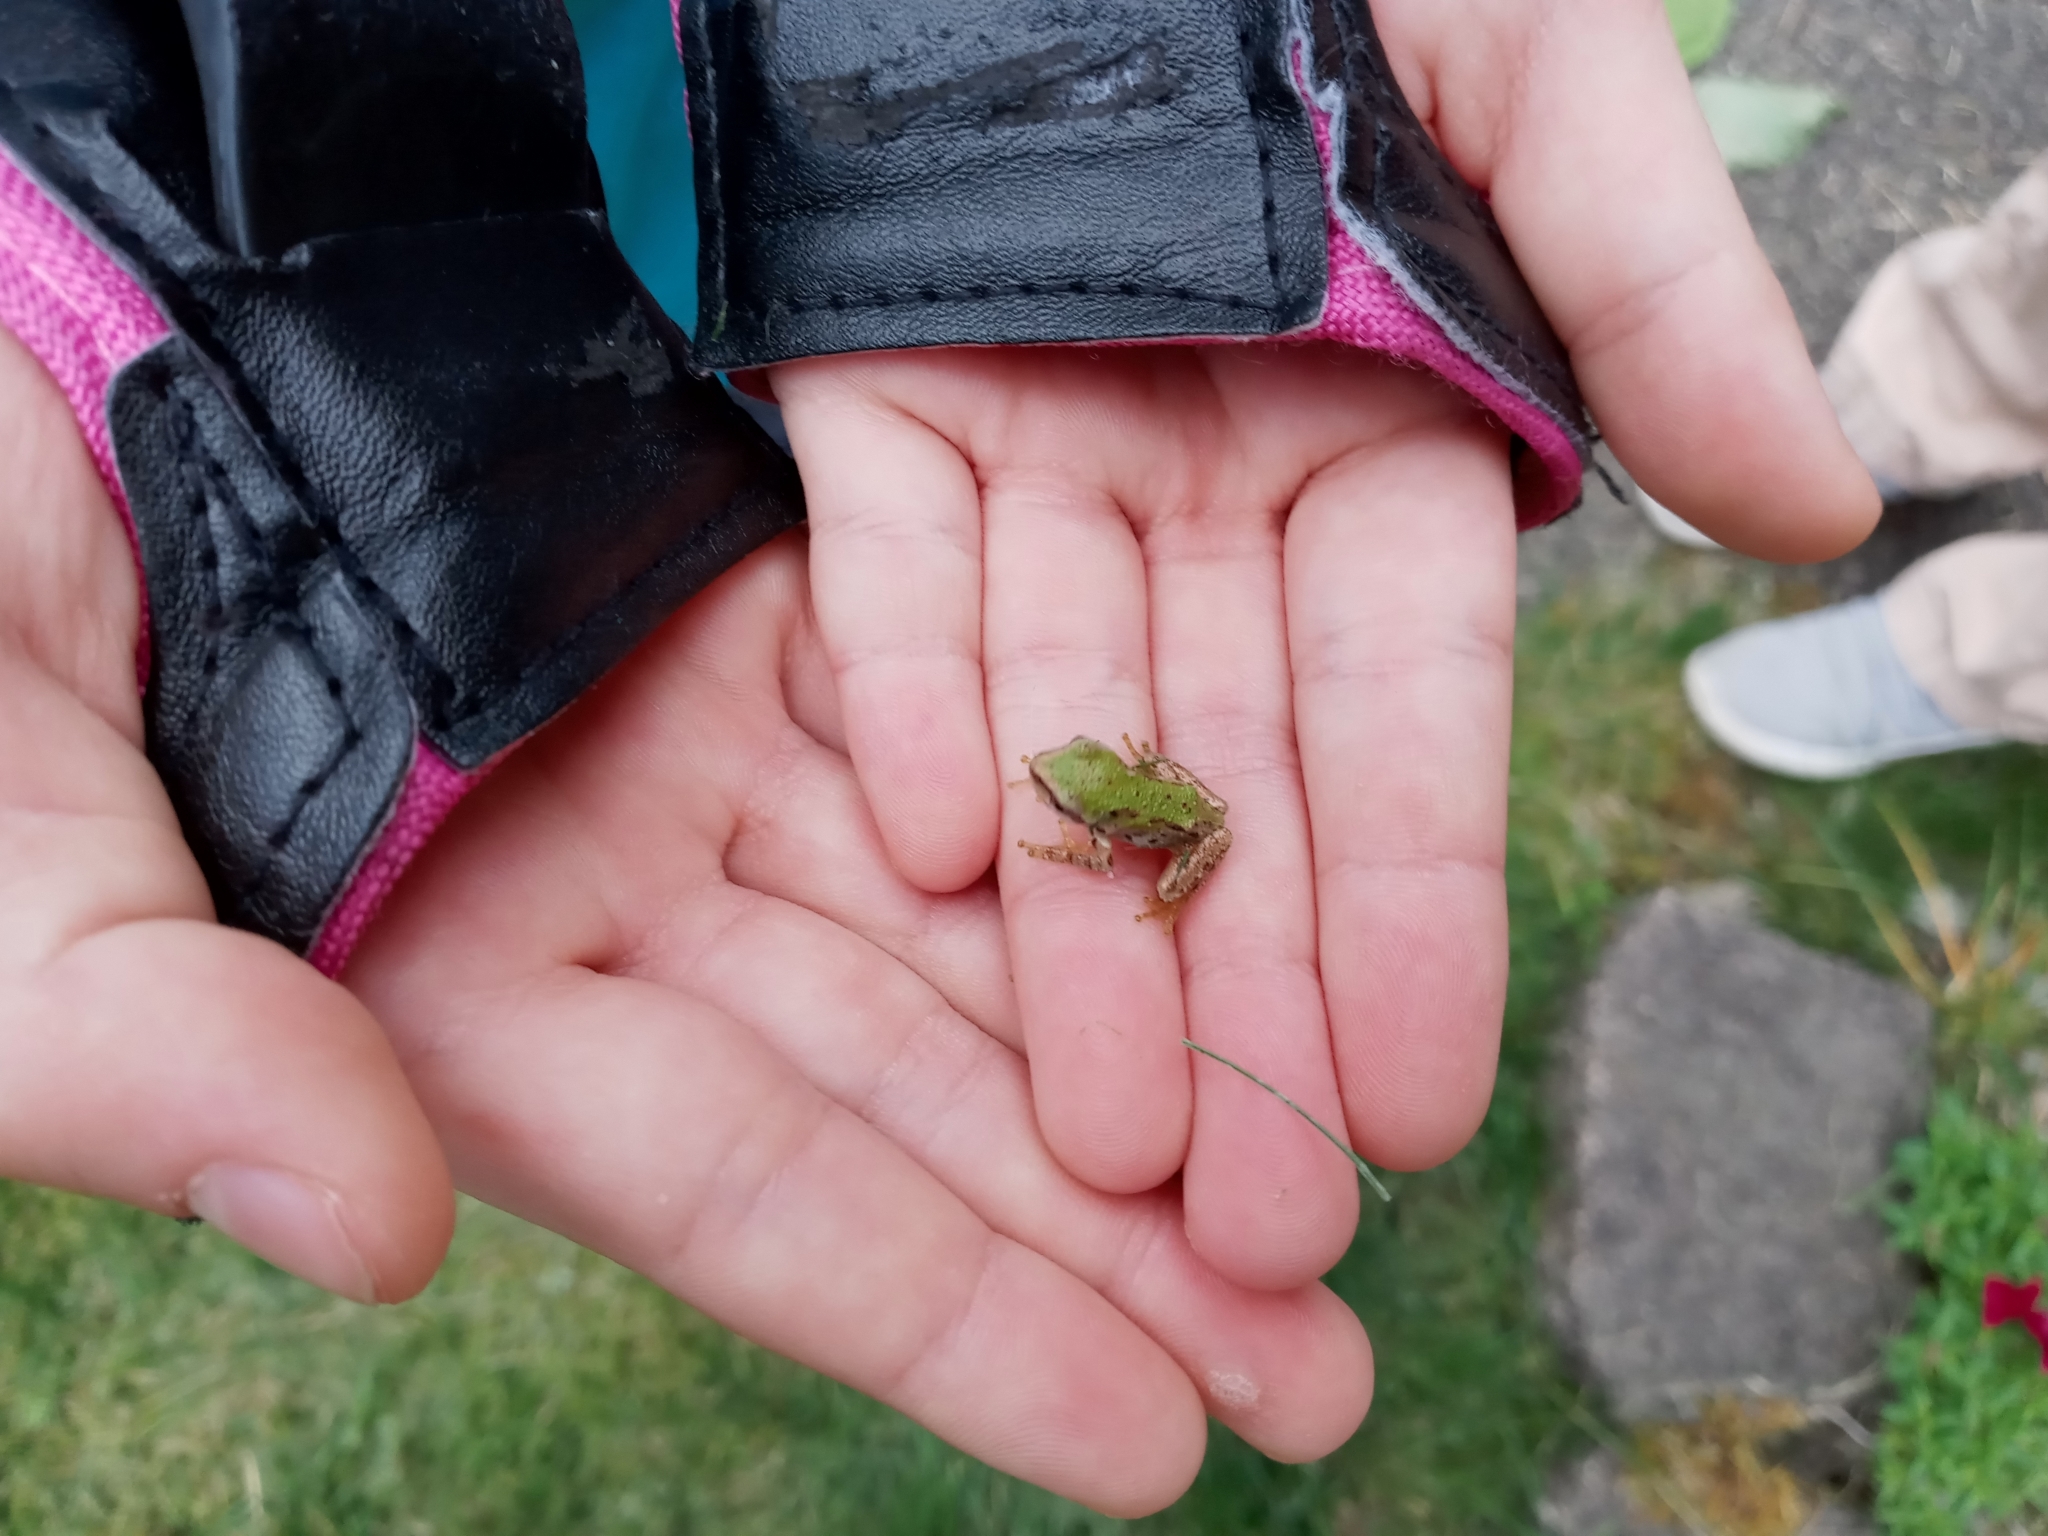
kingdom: Animalia
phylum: Chordata
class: Amphibia
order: Anura
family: Hylidae
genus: Pseudacris
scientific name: Pseudacris regilla
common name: Pacific chorus frog
